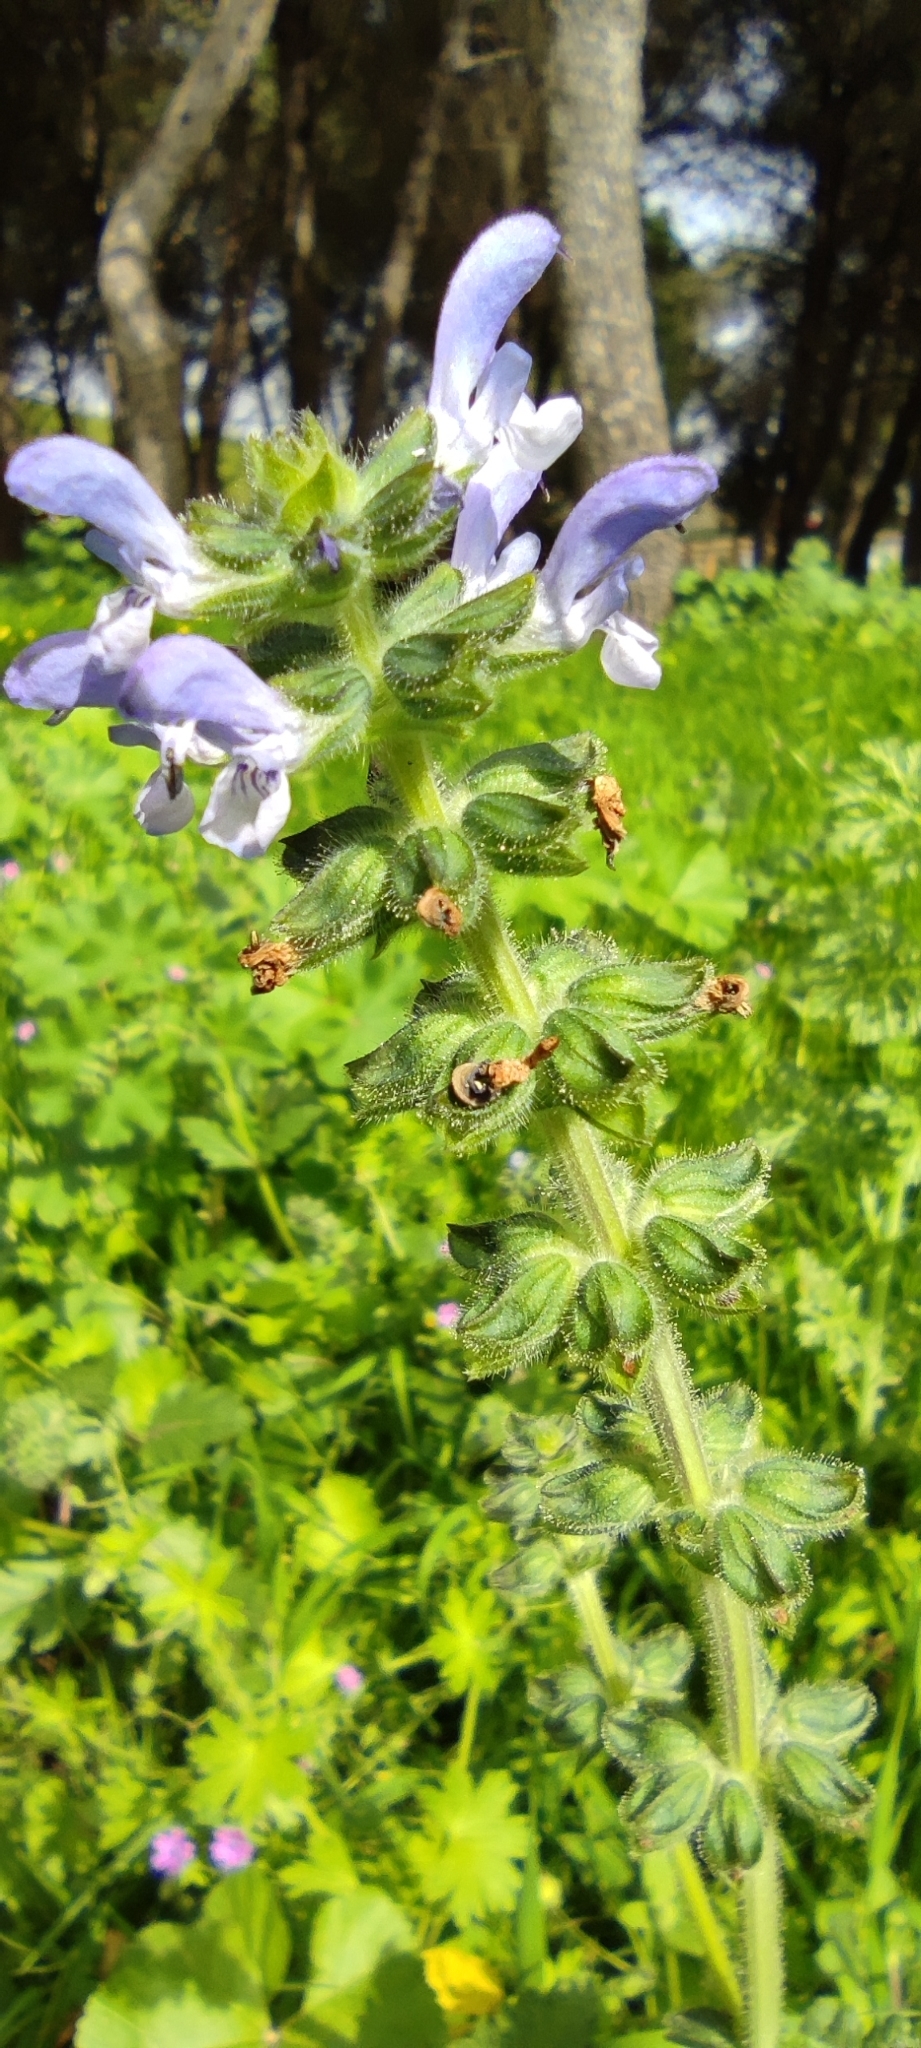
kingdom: Plantae
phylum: Tracheophyta
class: Magnoliopsida
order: Lamiales
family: Lamiaceae
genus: Salvia
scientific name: Salvia verbenaca
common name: Wild clary
